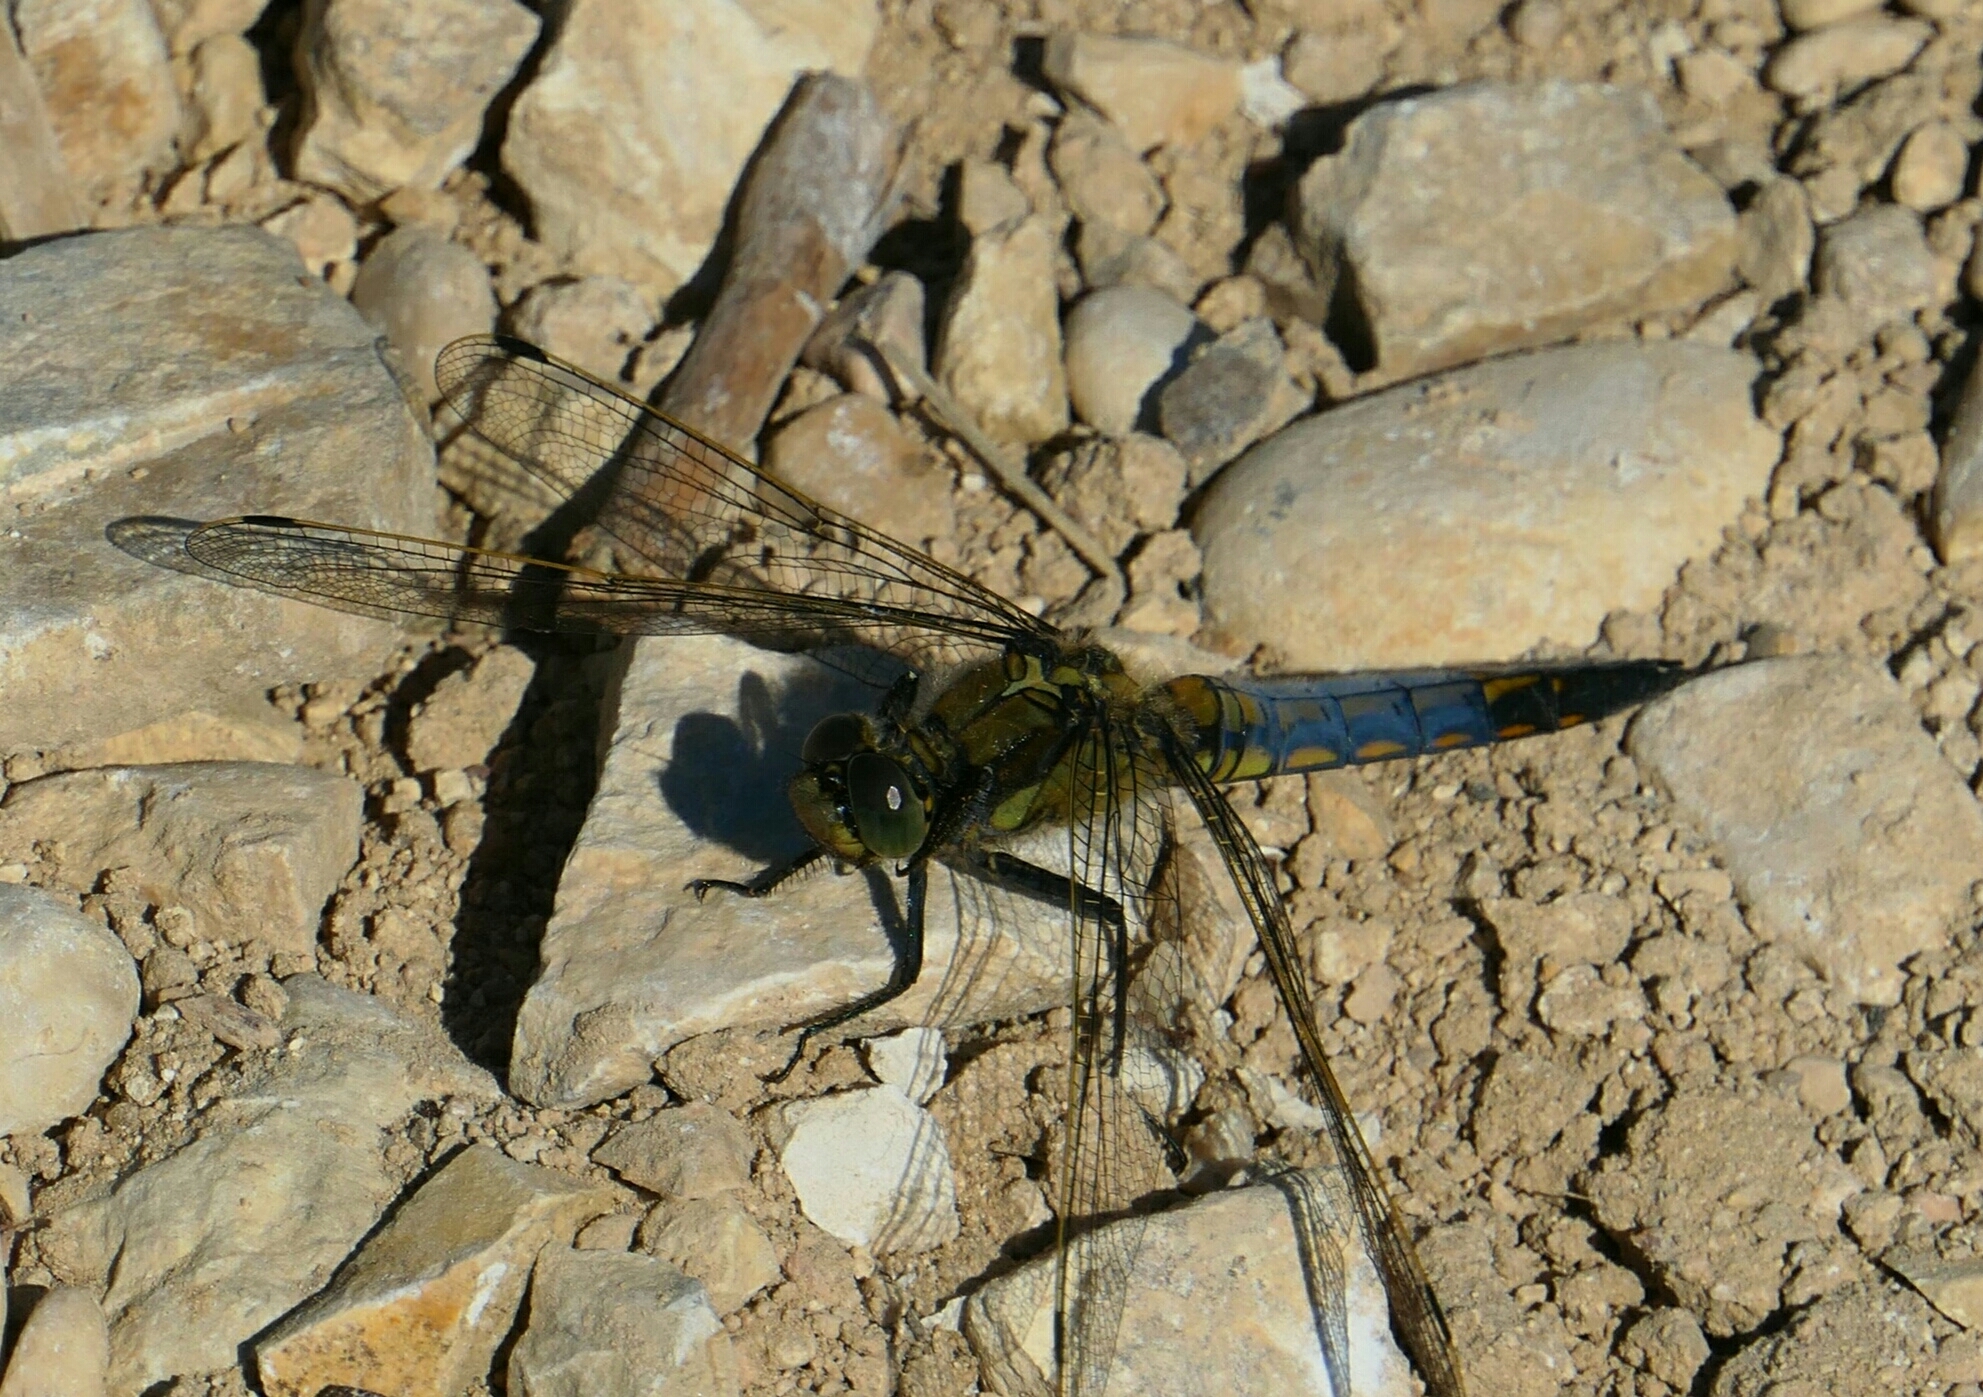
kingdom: Animalia
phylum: Arthropoda
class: Insecta
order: Odonata
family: Libellulidae
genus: Orthetrum
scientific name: Orthetrum cancellatum
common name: Black-tailed skimmer
